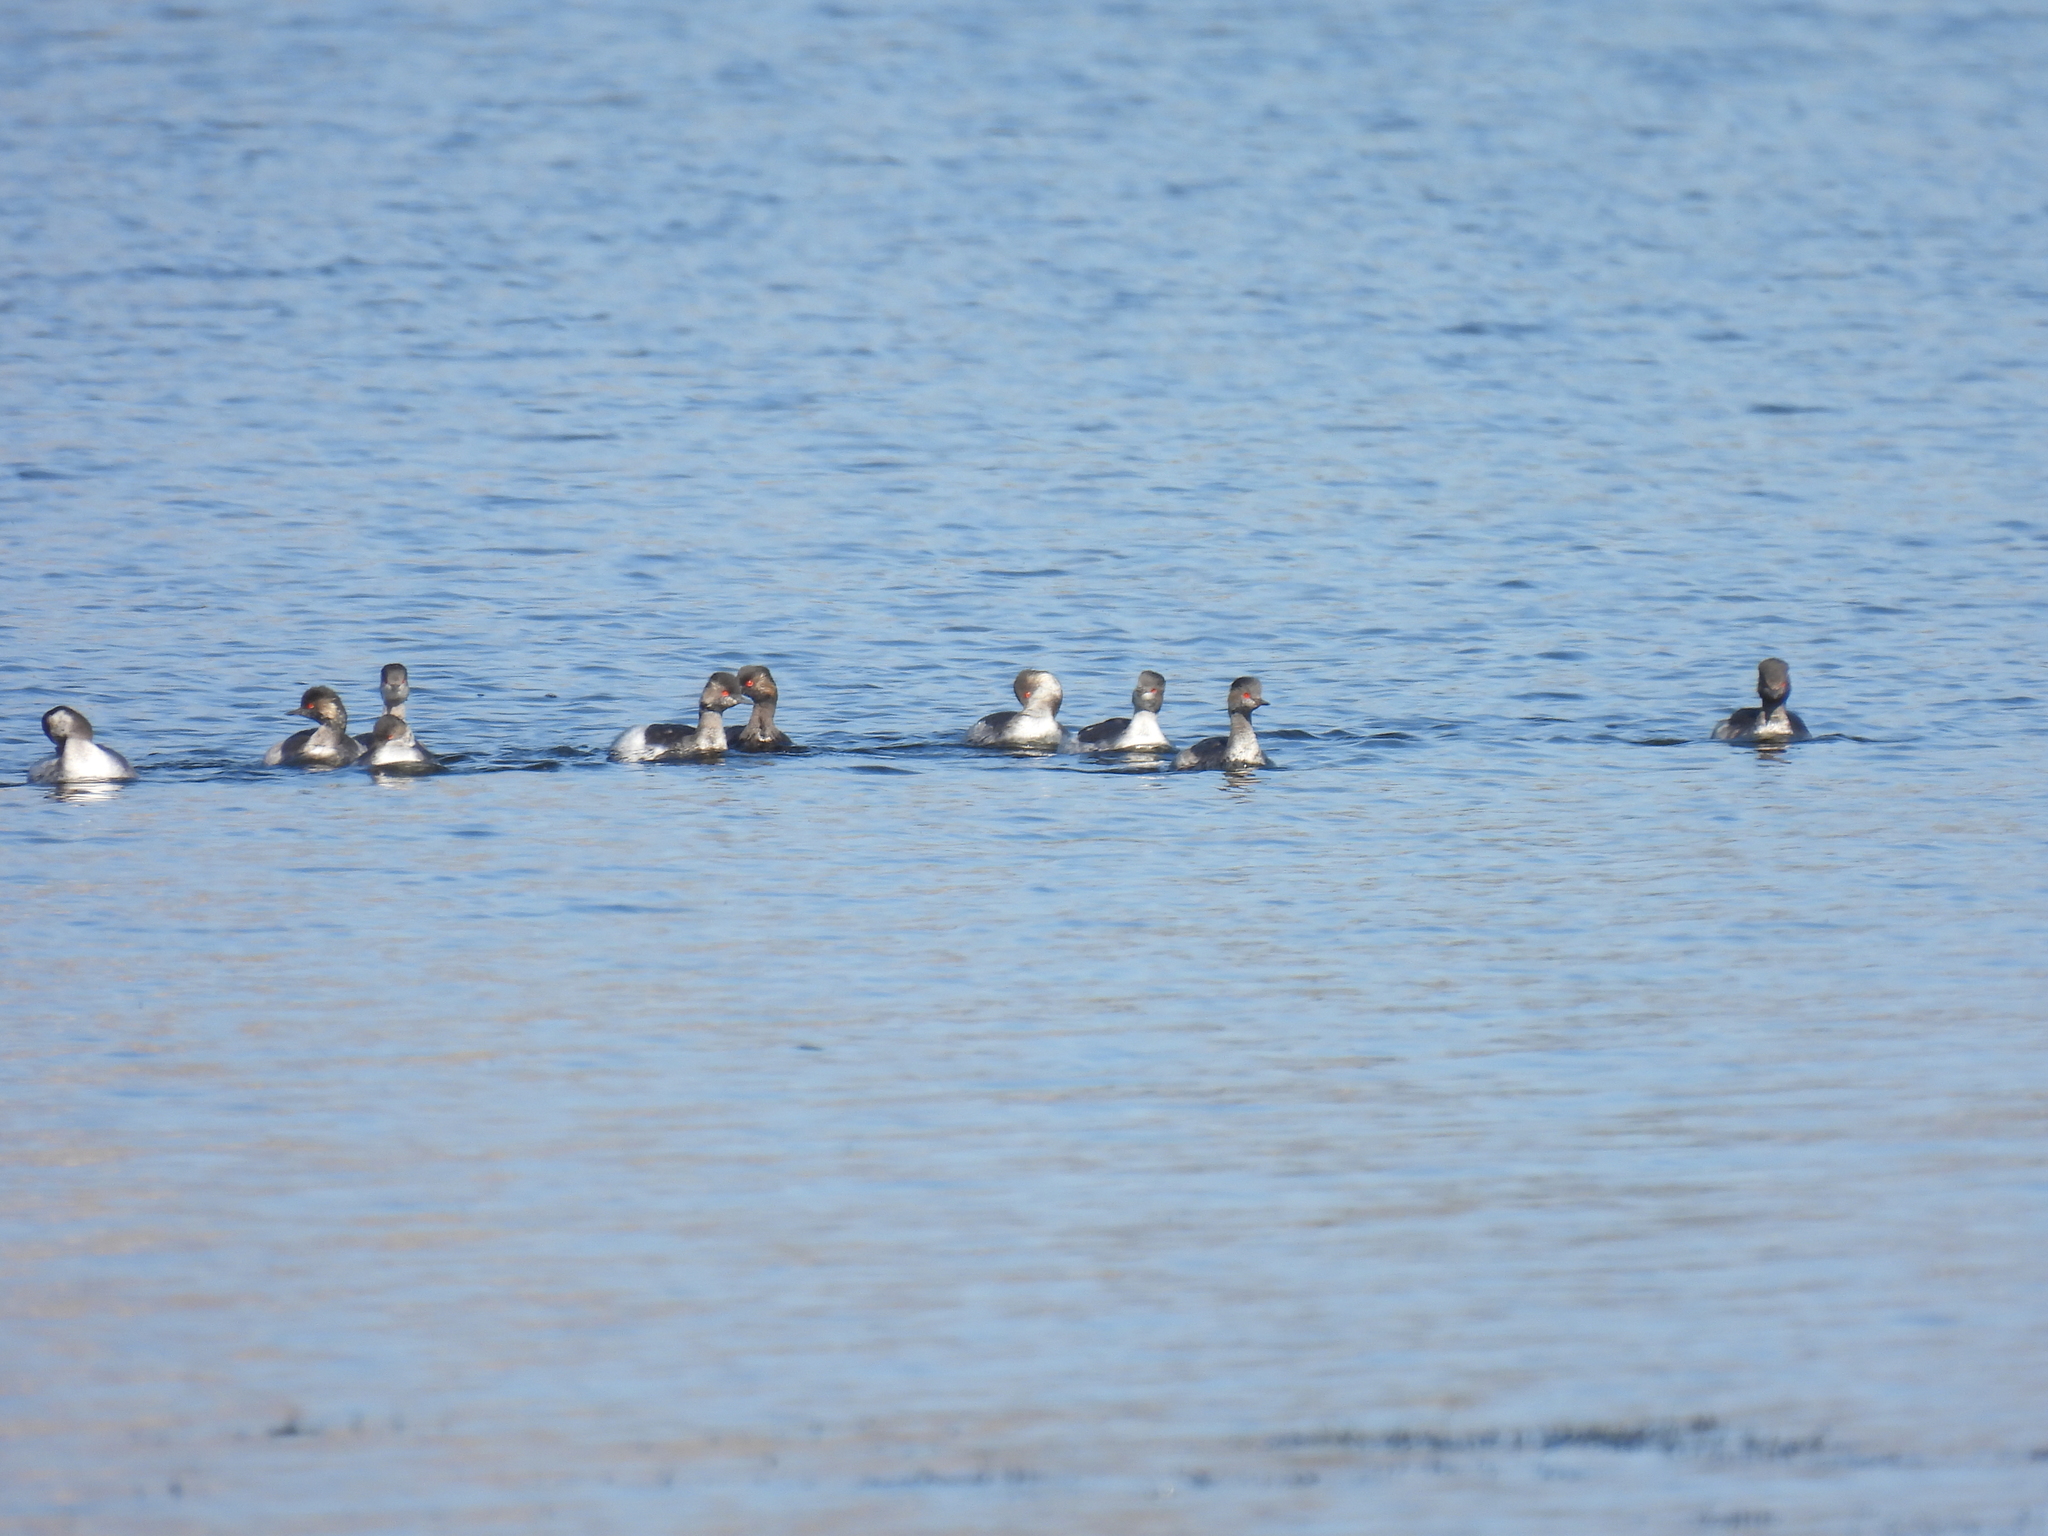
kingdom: Animalia
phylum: Chordata
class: Aves
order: Podicipediformes
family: Podicipedidae
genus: Podiceps
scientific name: Podiceps nigricollis
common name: Black-necked grebe
